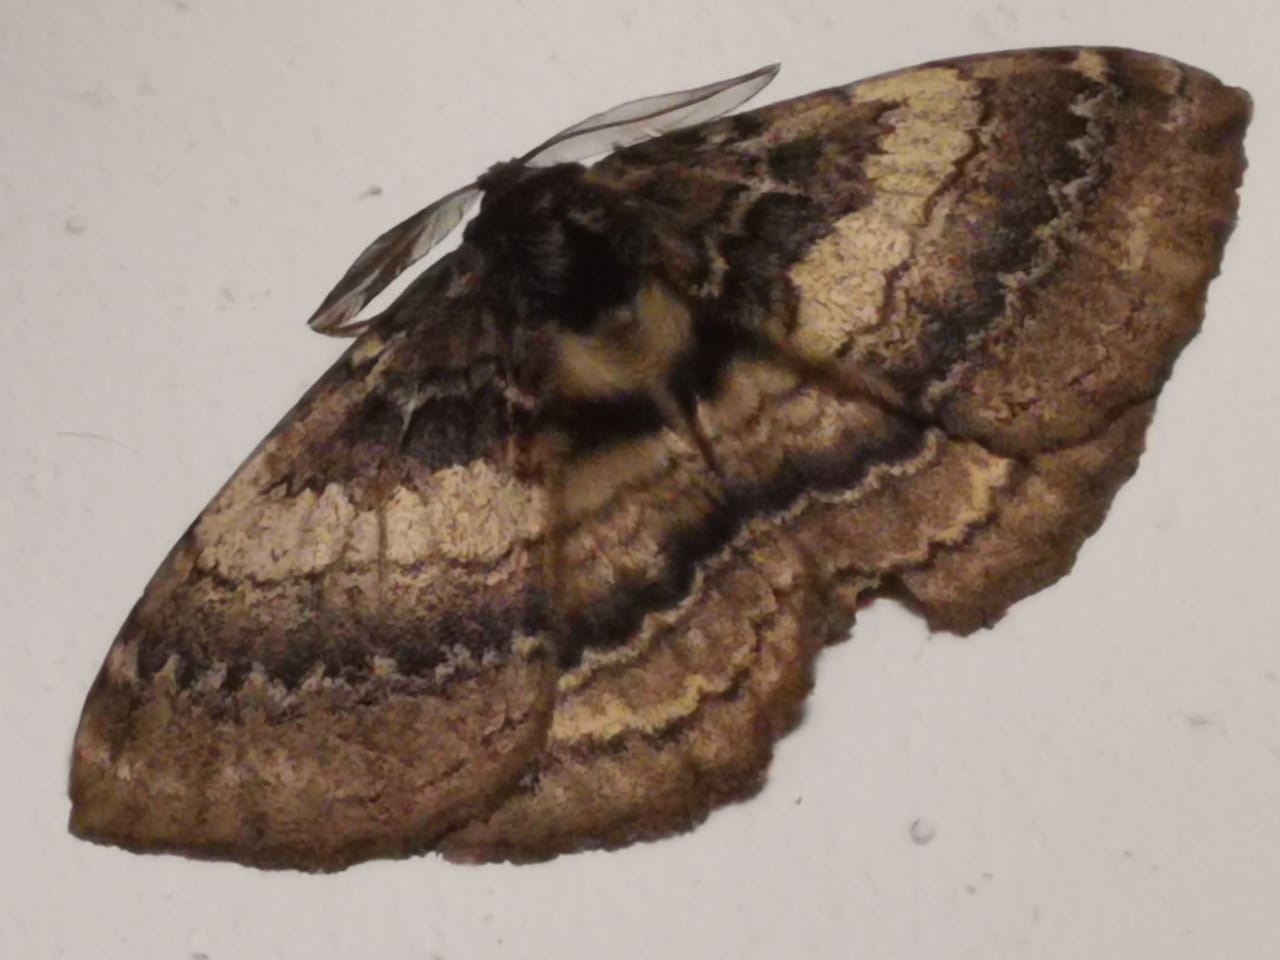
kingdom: Animalia
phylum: Arthropoda
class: Insecta
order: Lepidoptera
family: Eupterotidae
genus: Striphnopteryx
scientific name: Striphnopteryx edulis
